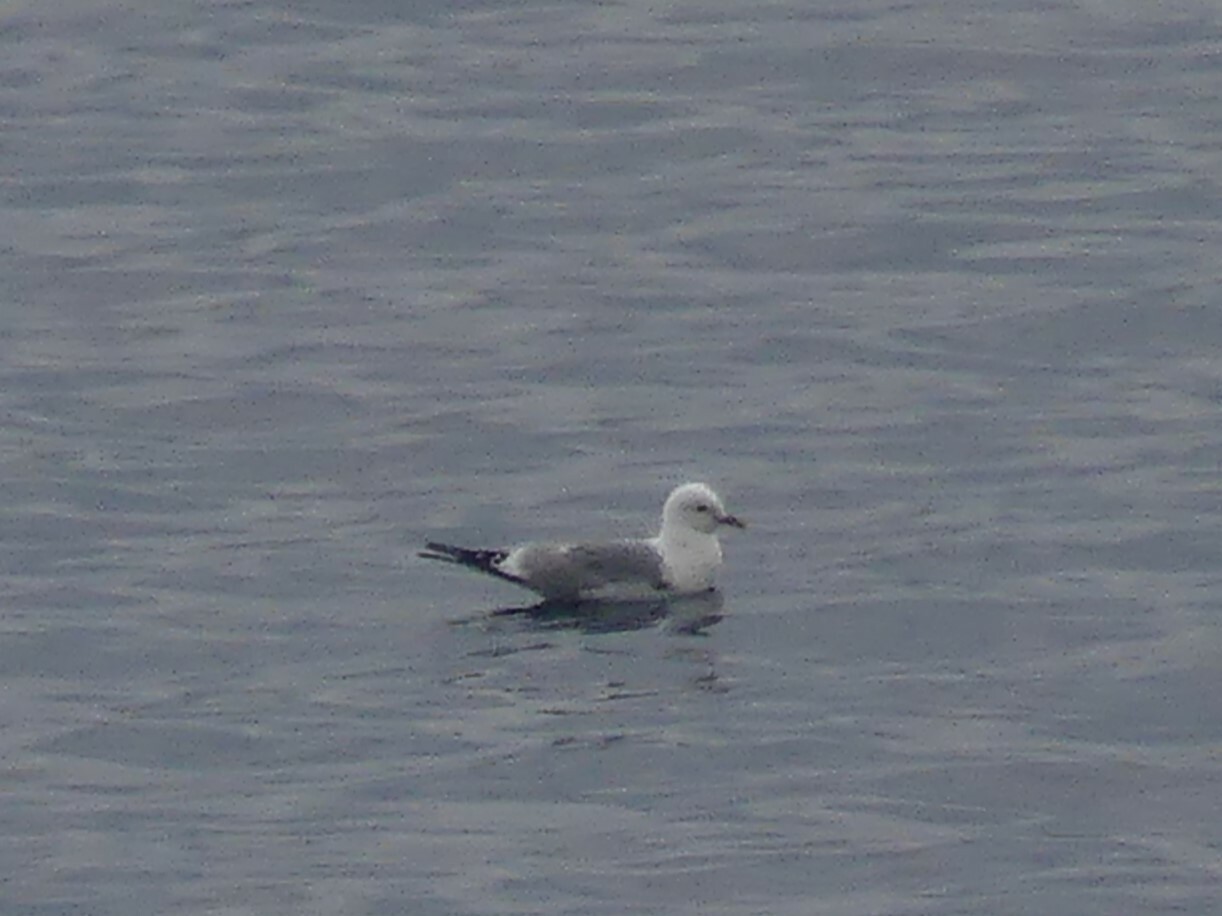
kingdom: Animalia
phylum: Chordata
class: Aves
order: Charadriiformes
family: Laridae
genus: Larus
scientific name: Larus brachyrhynchus
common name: Short-billed gull
